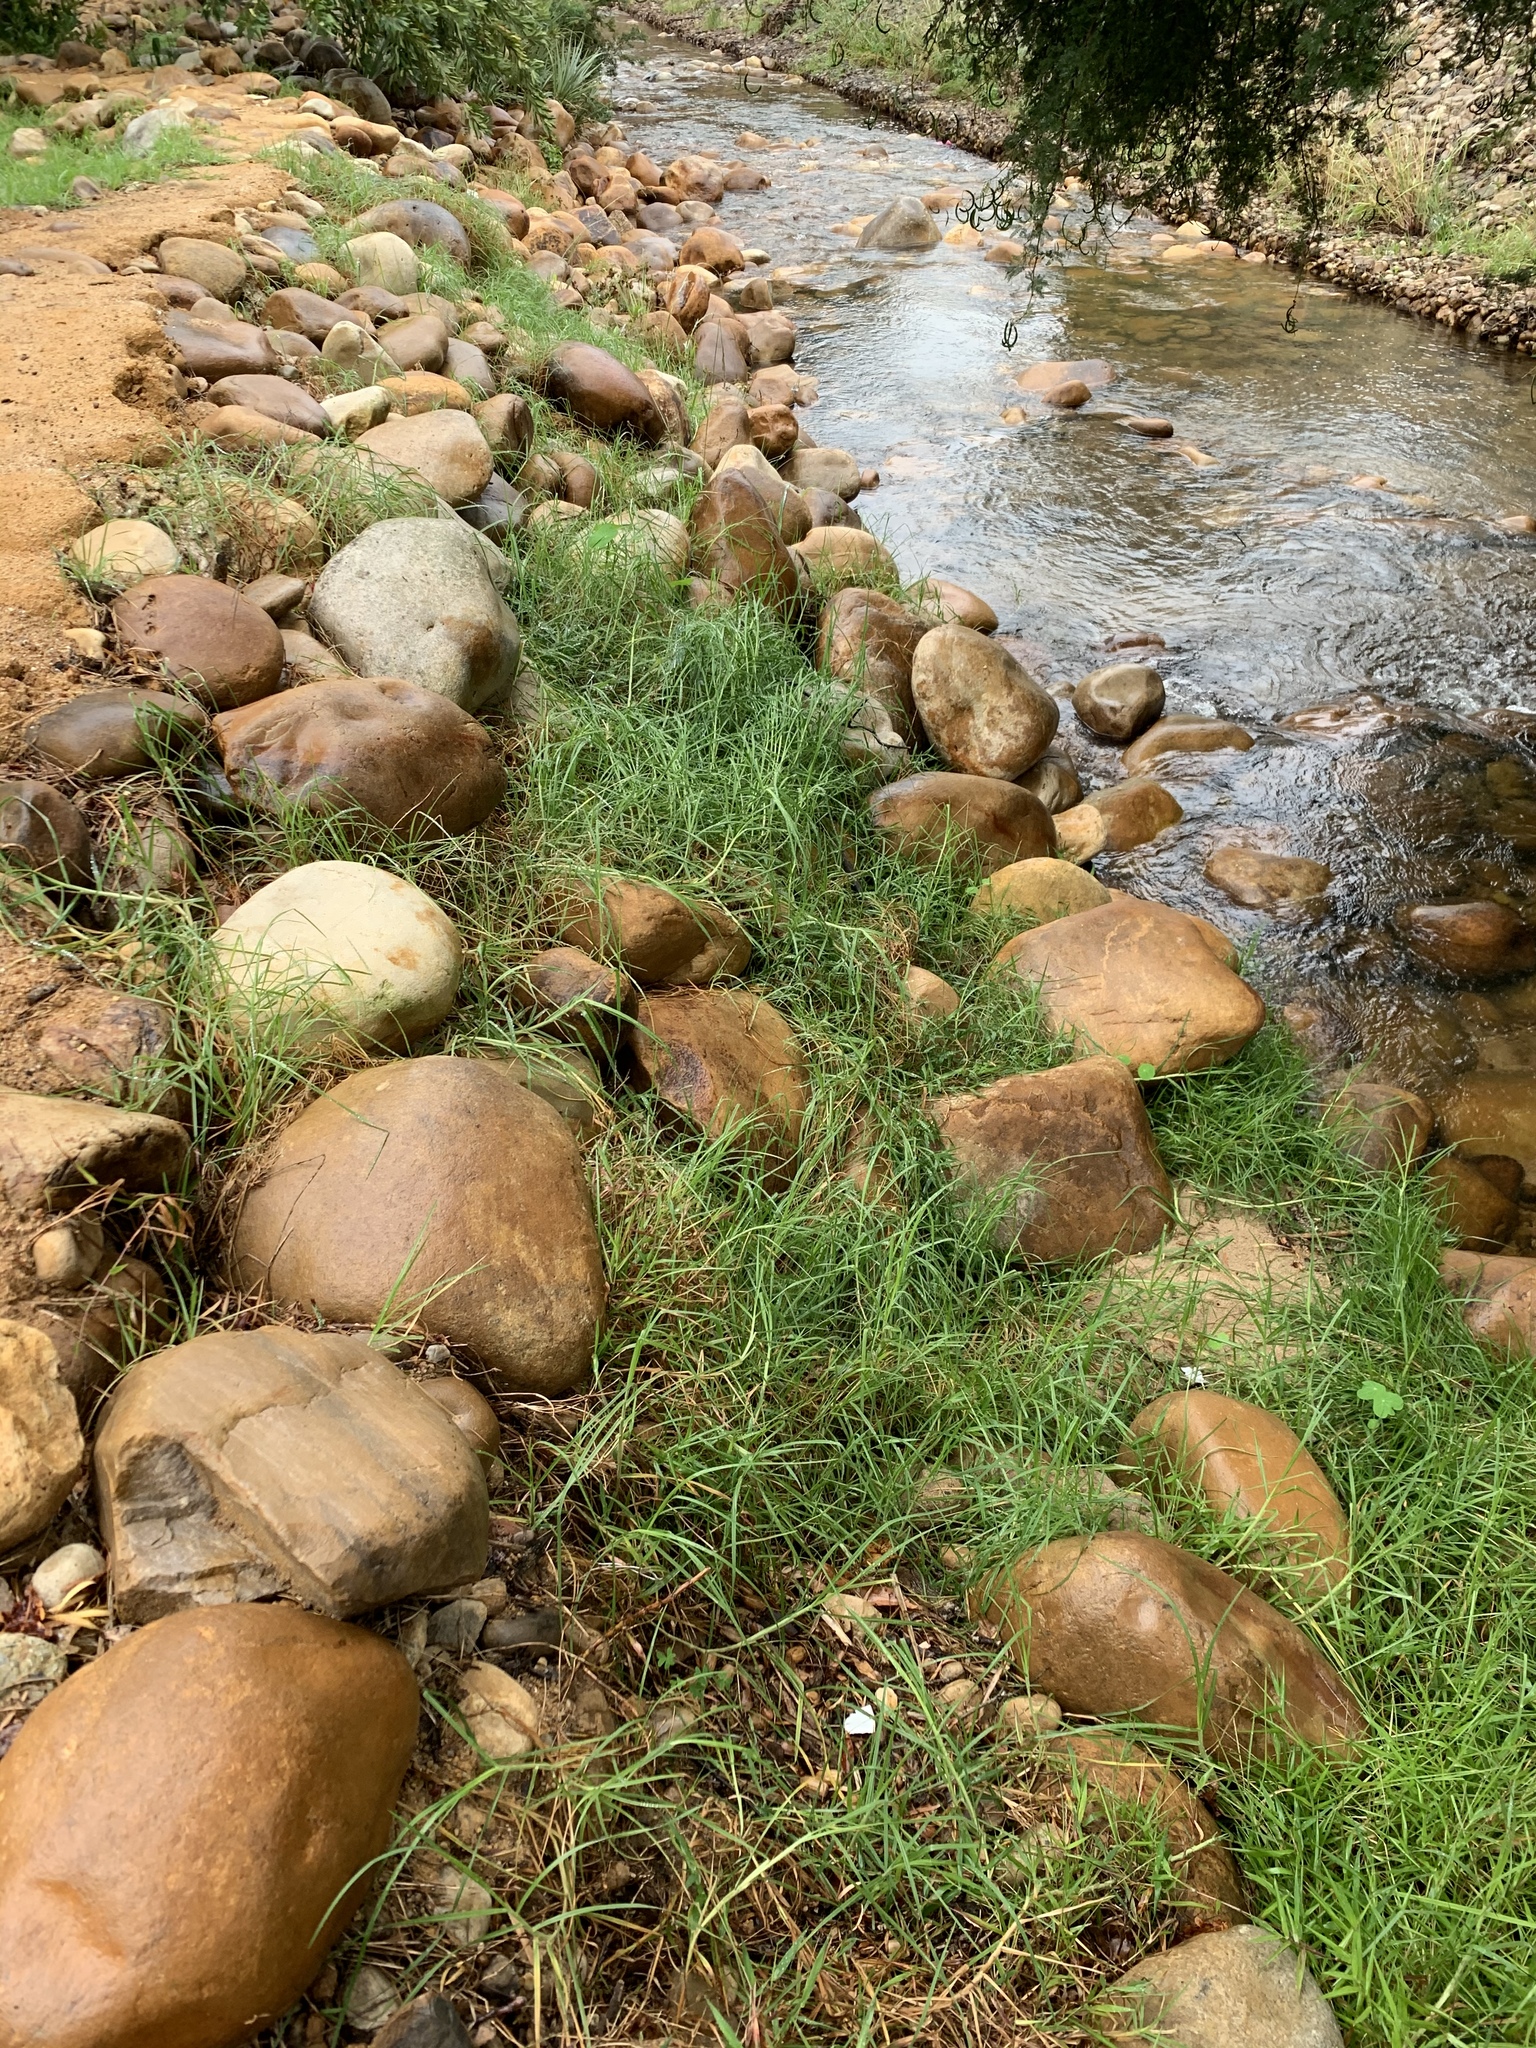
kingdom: Plantae
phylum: Tracheophyta
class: Liliopsida
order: Poales
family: Poaceae
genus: Cenchrus
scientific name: Cenchrus clandestinus
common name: Kikuyugrass
